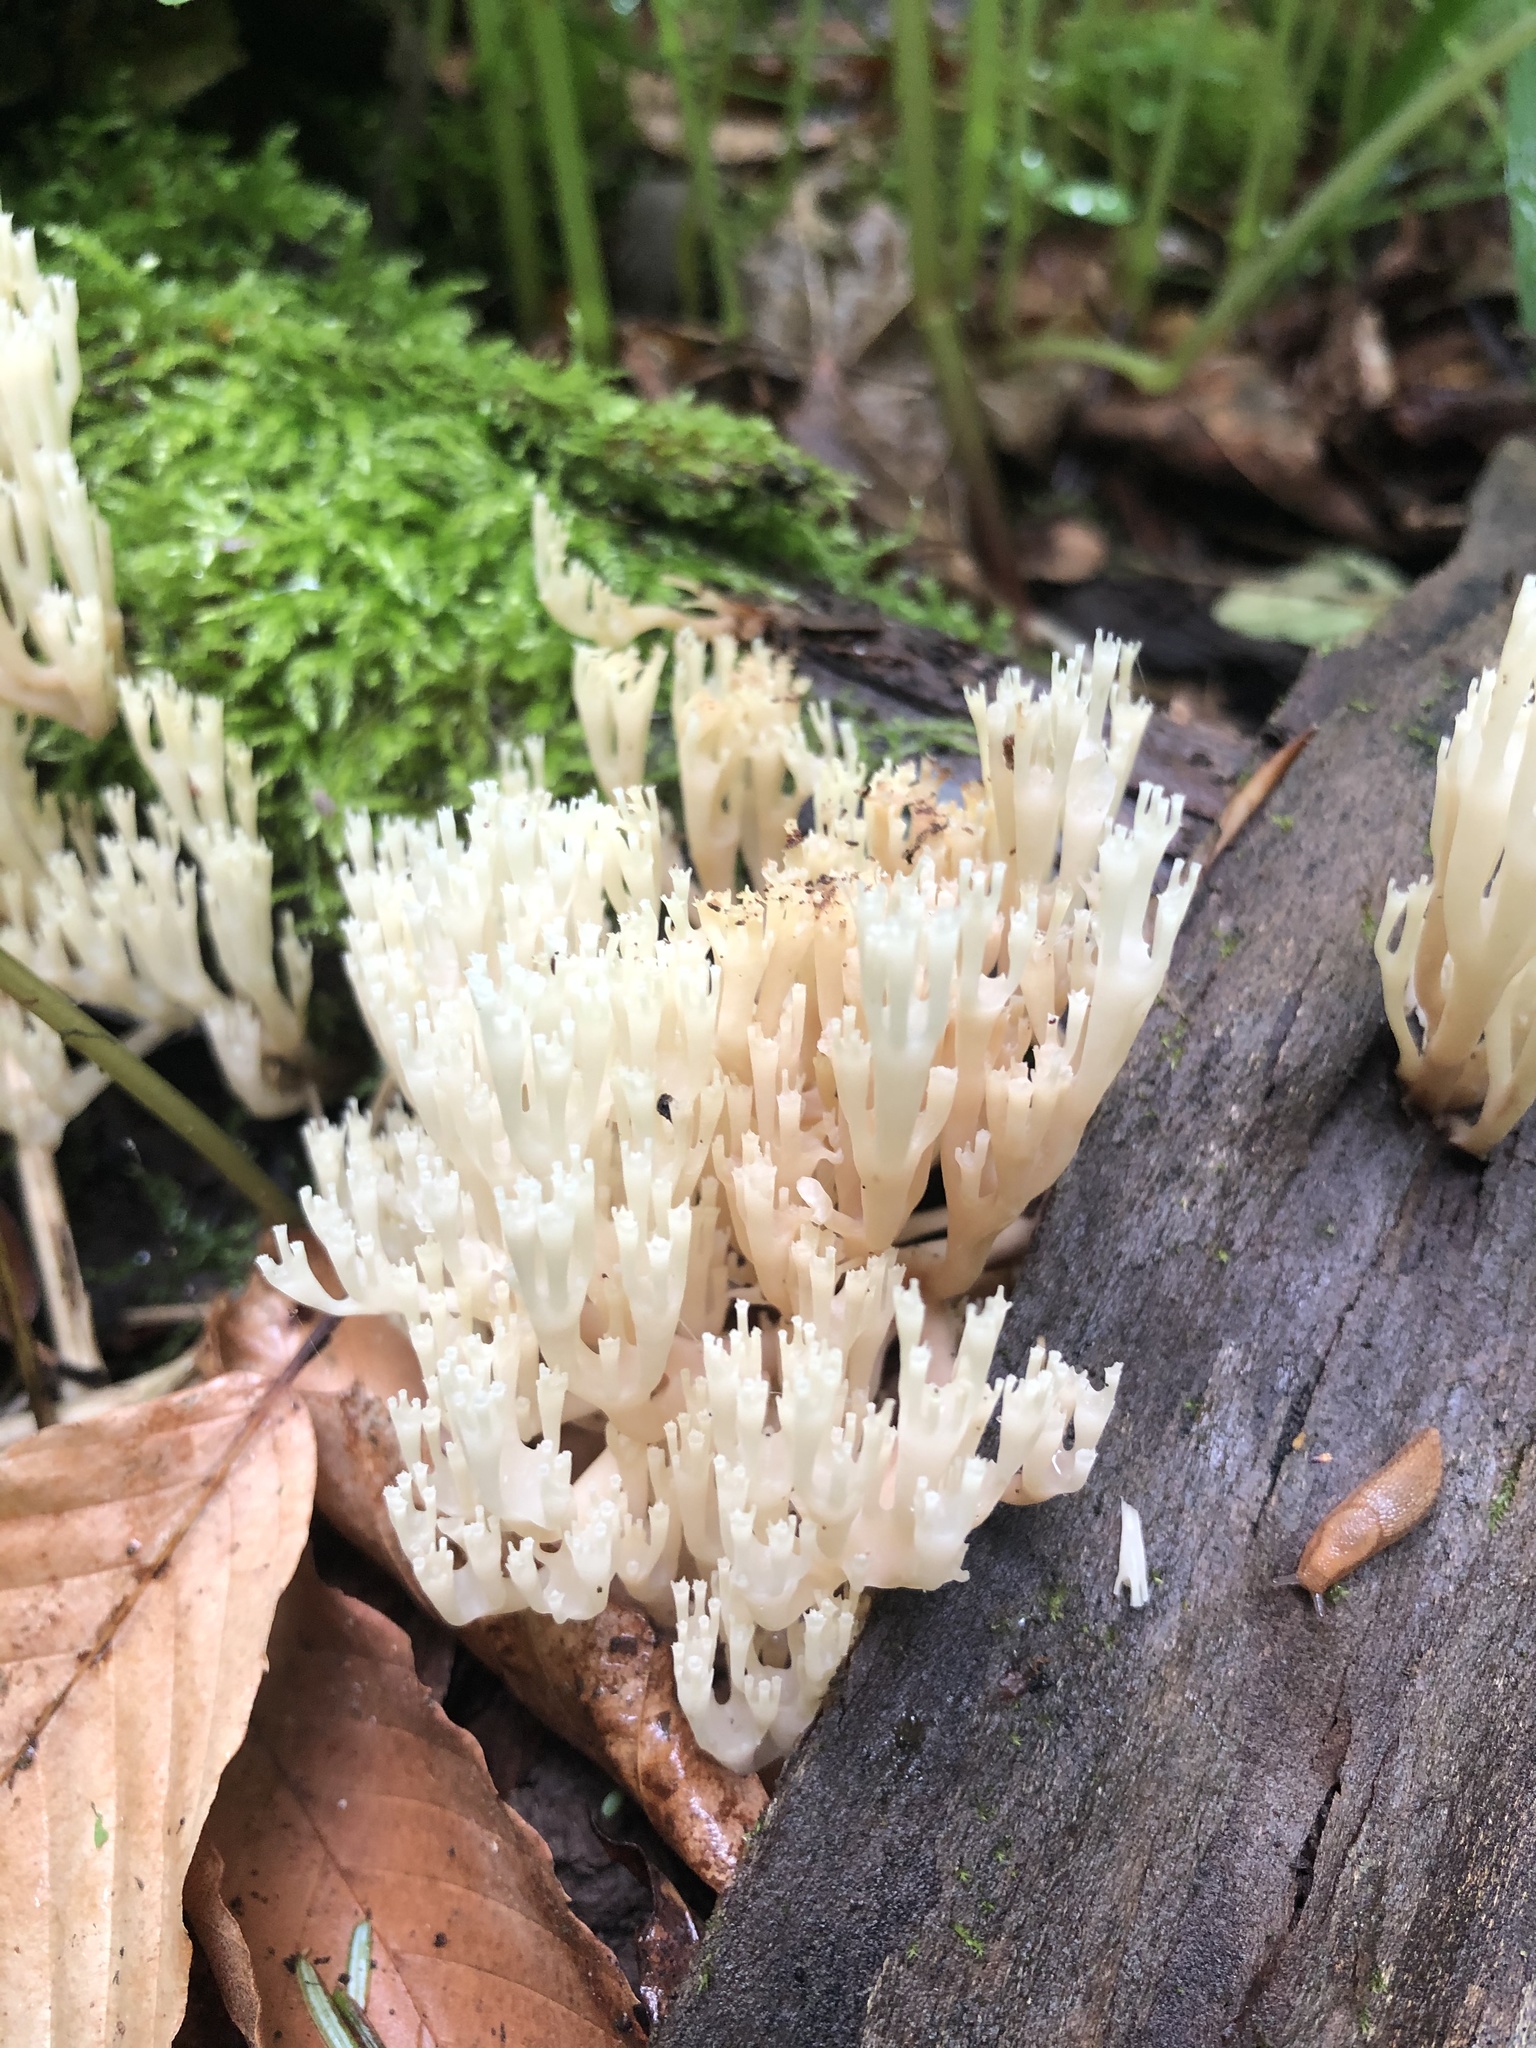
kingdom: Fungi
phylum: Basidiomycota
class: Agaricomycetes
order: Russulales
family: Auriscalpiaceae
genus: Artomyces
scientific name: Artomyces pyxidatus
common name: Crown-tipped coral fungus
